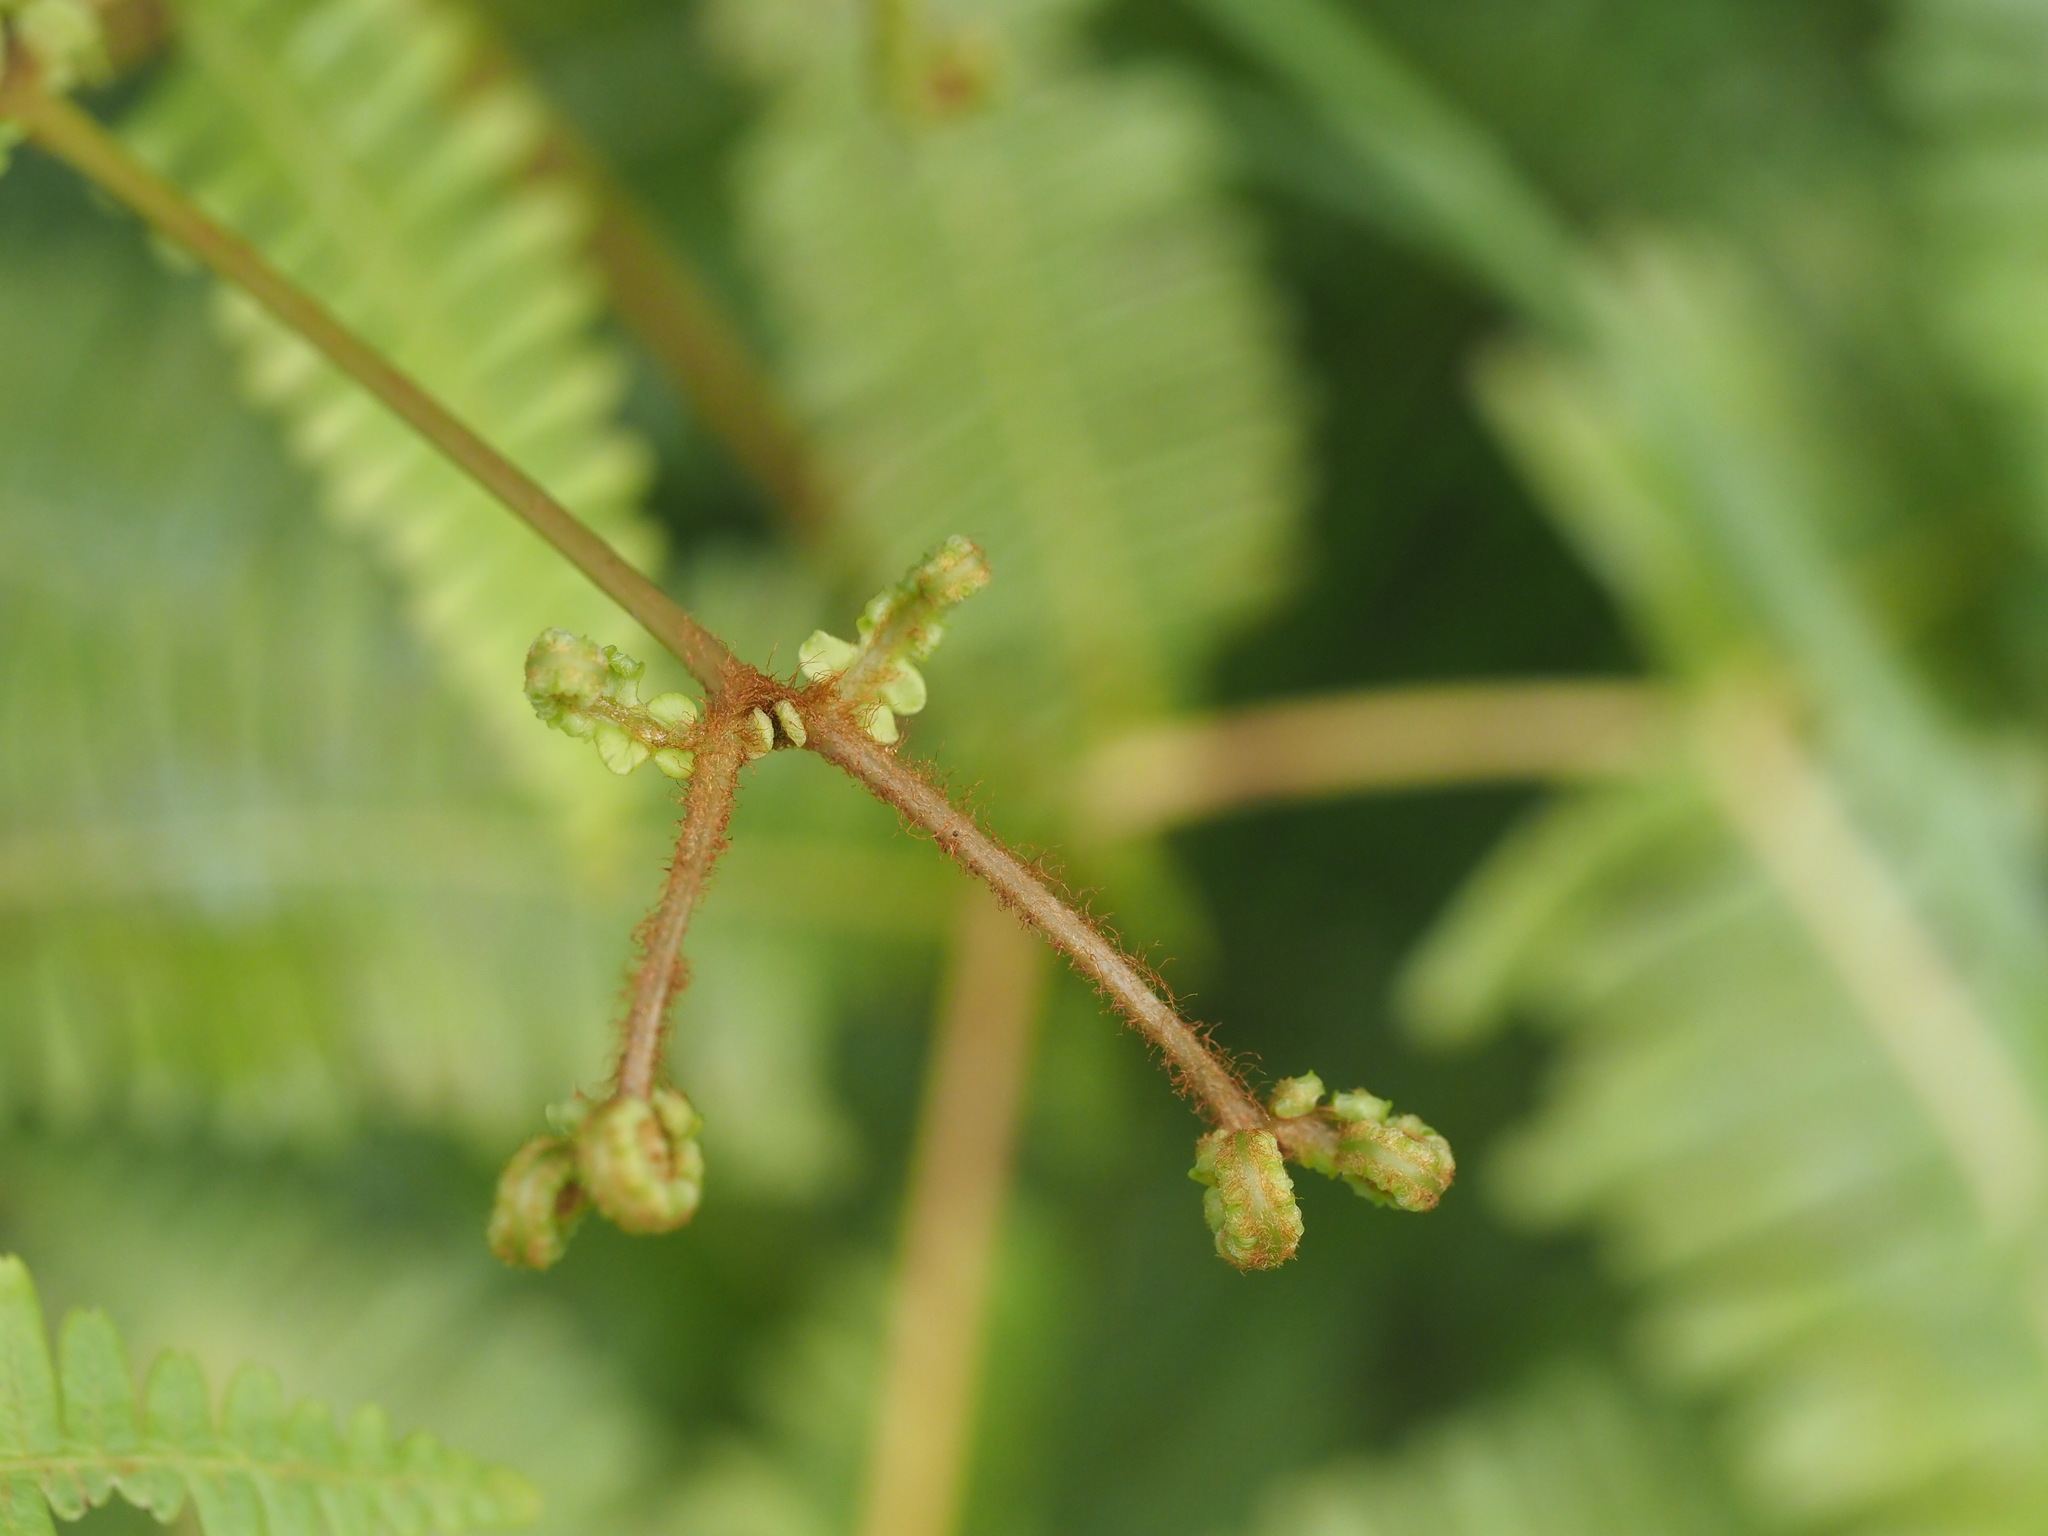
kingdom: Plantae
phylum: Tracheophyta
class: Polypodiopsida
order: Gleicheniales
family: Gleicheniaceae
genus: Dicranopteris
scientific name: Dicranopteris linearis
